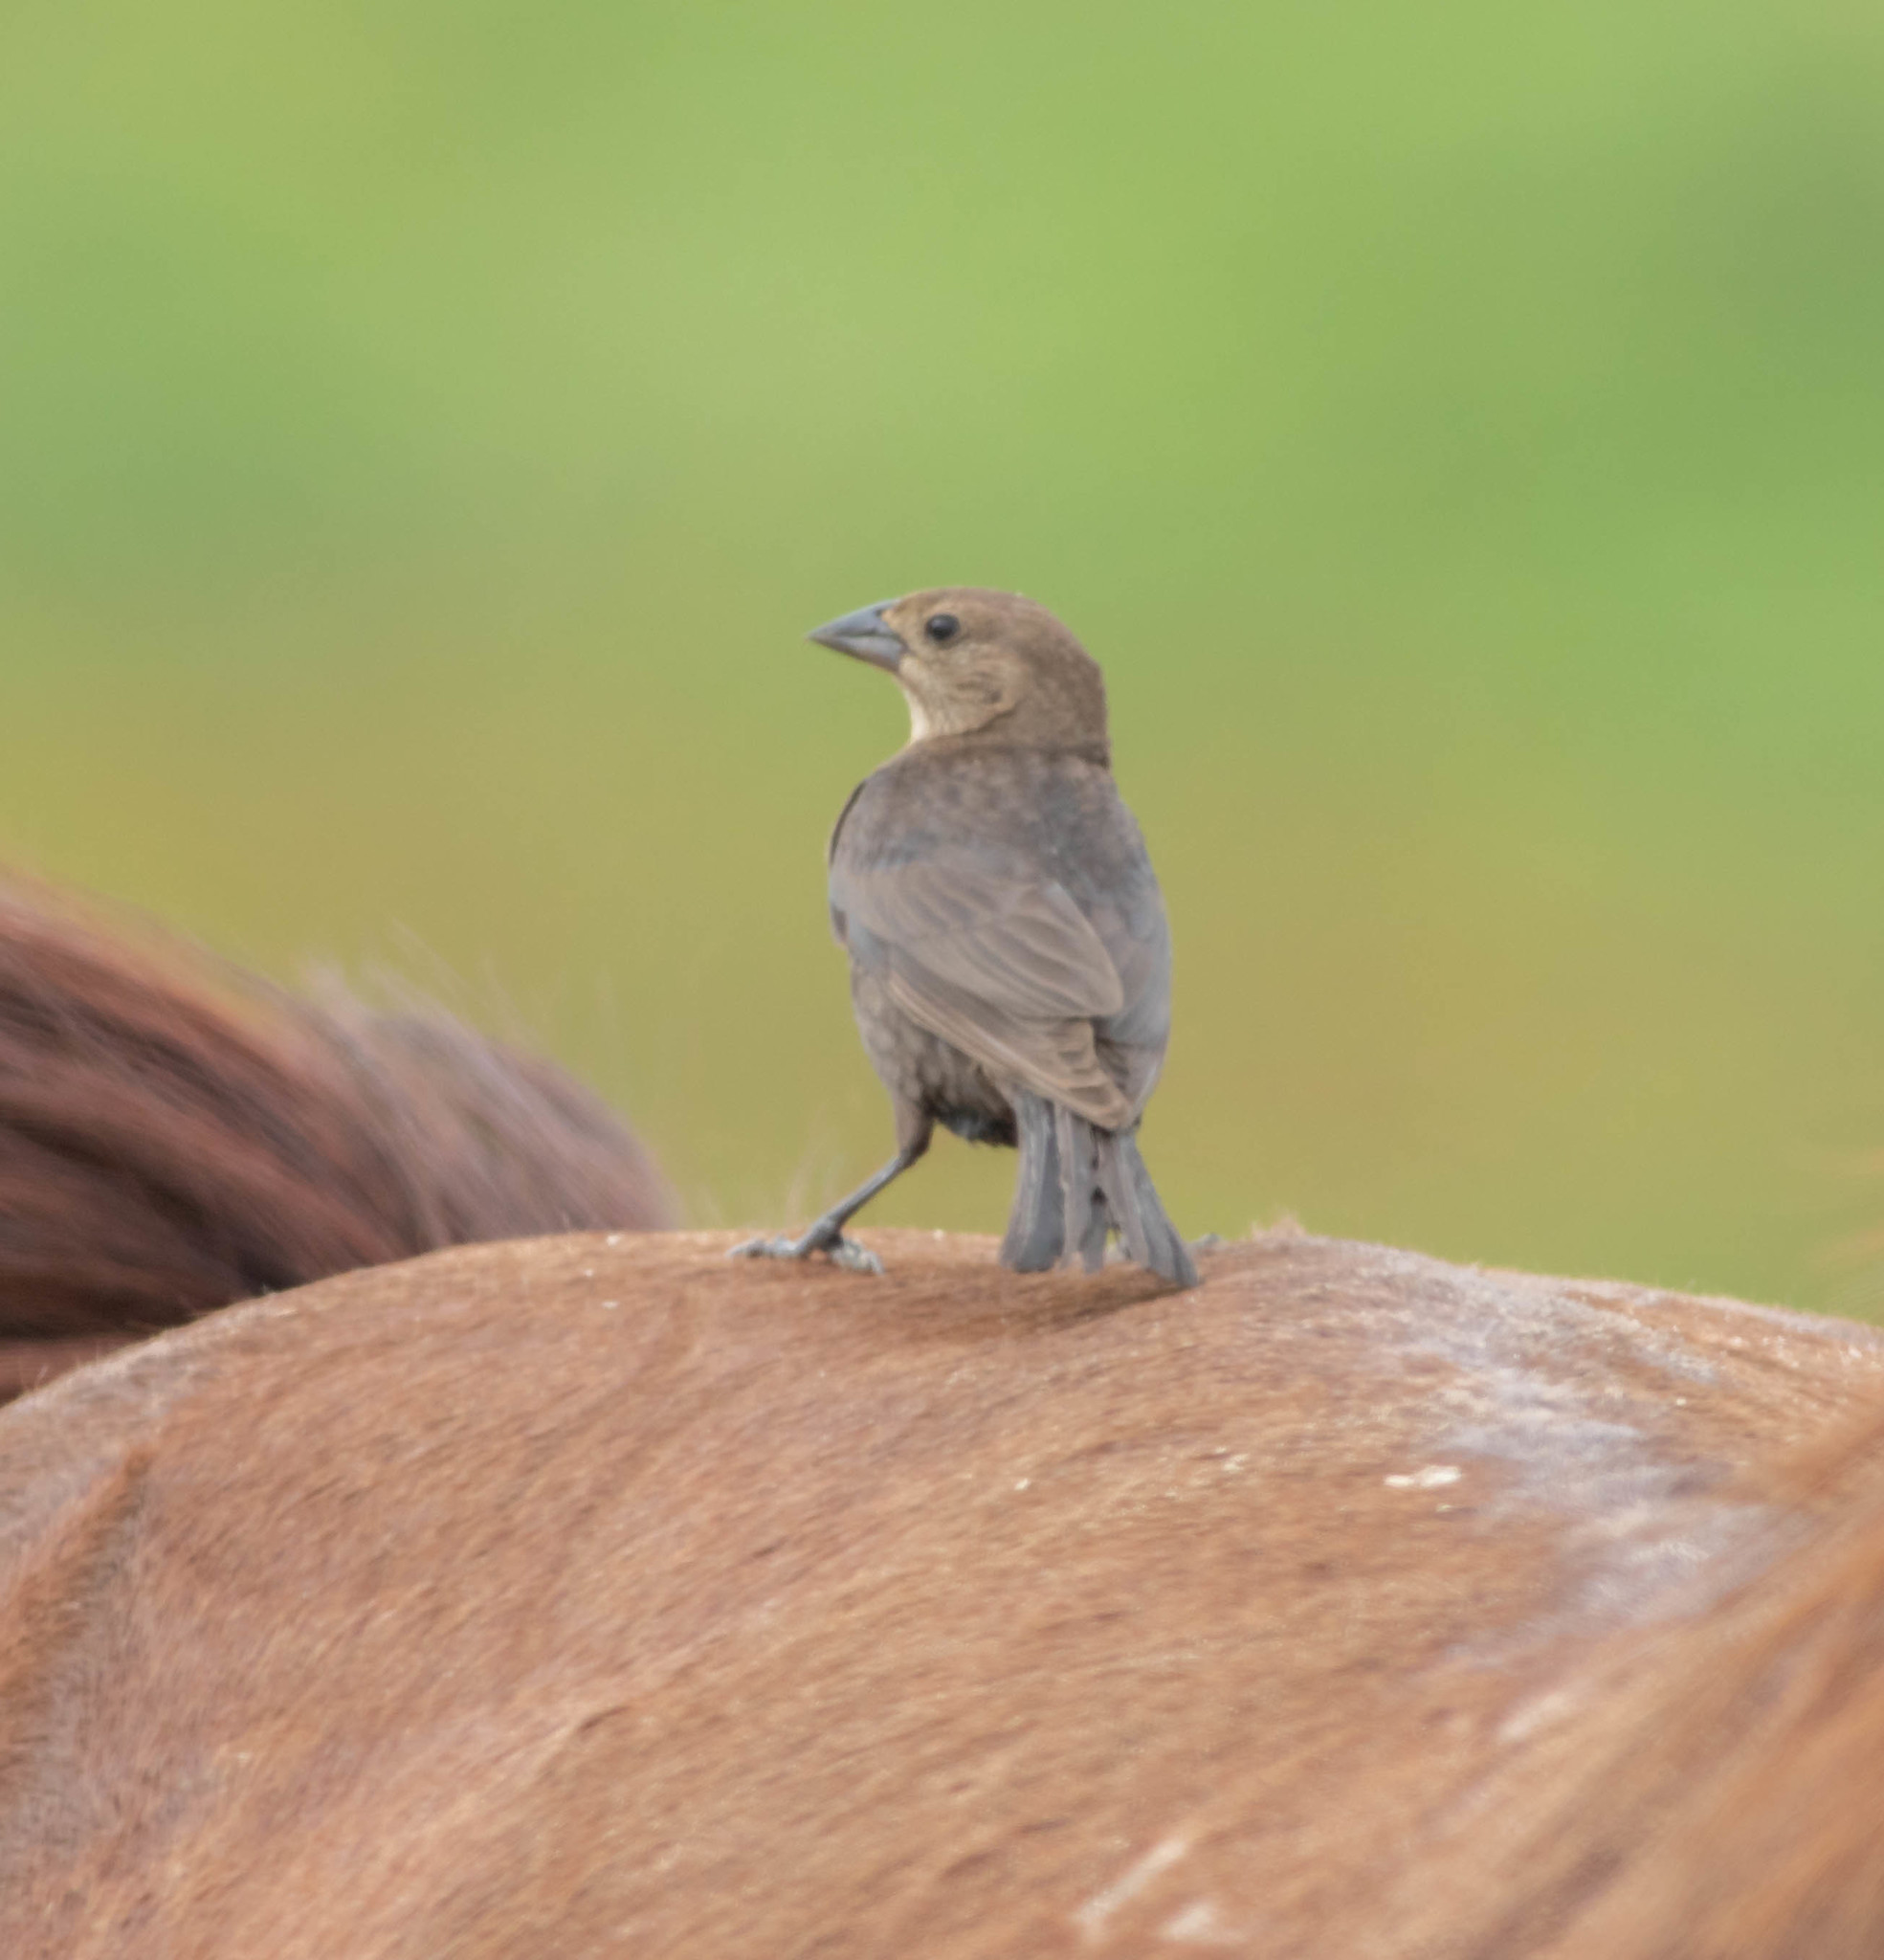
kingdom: Animalia
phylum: Chordata
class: Aves
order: Passeriformes
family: Icteridae
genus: Molothrus
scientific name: Molothrus ater
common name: Brown-headed cowbird
